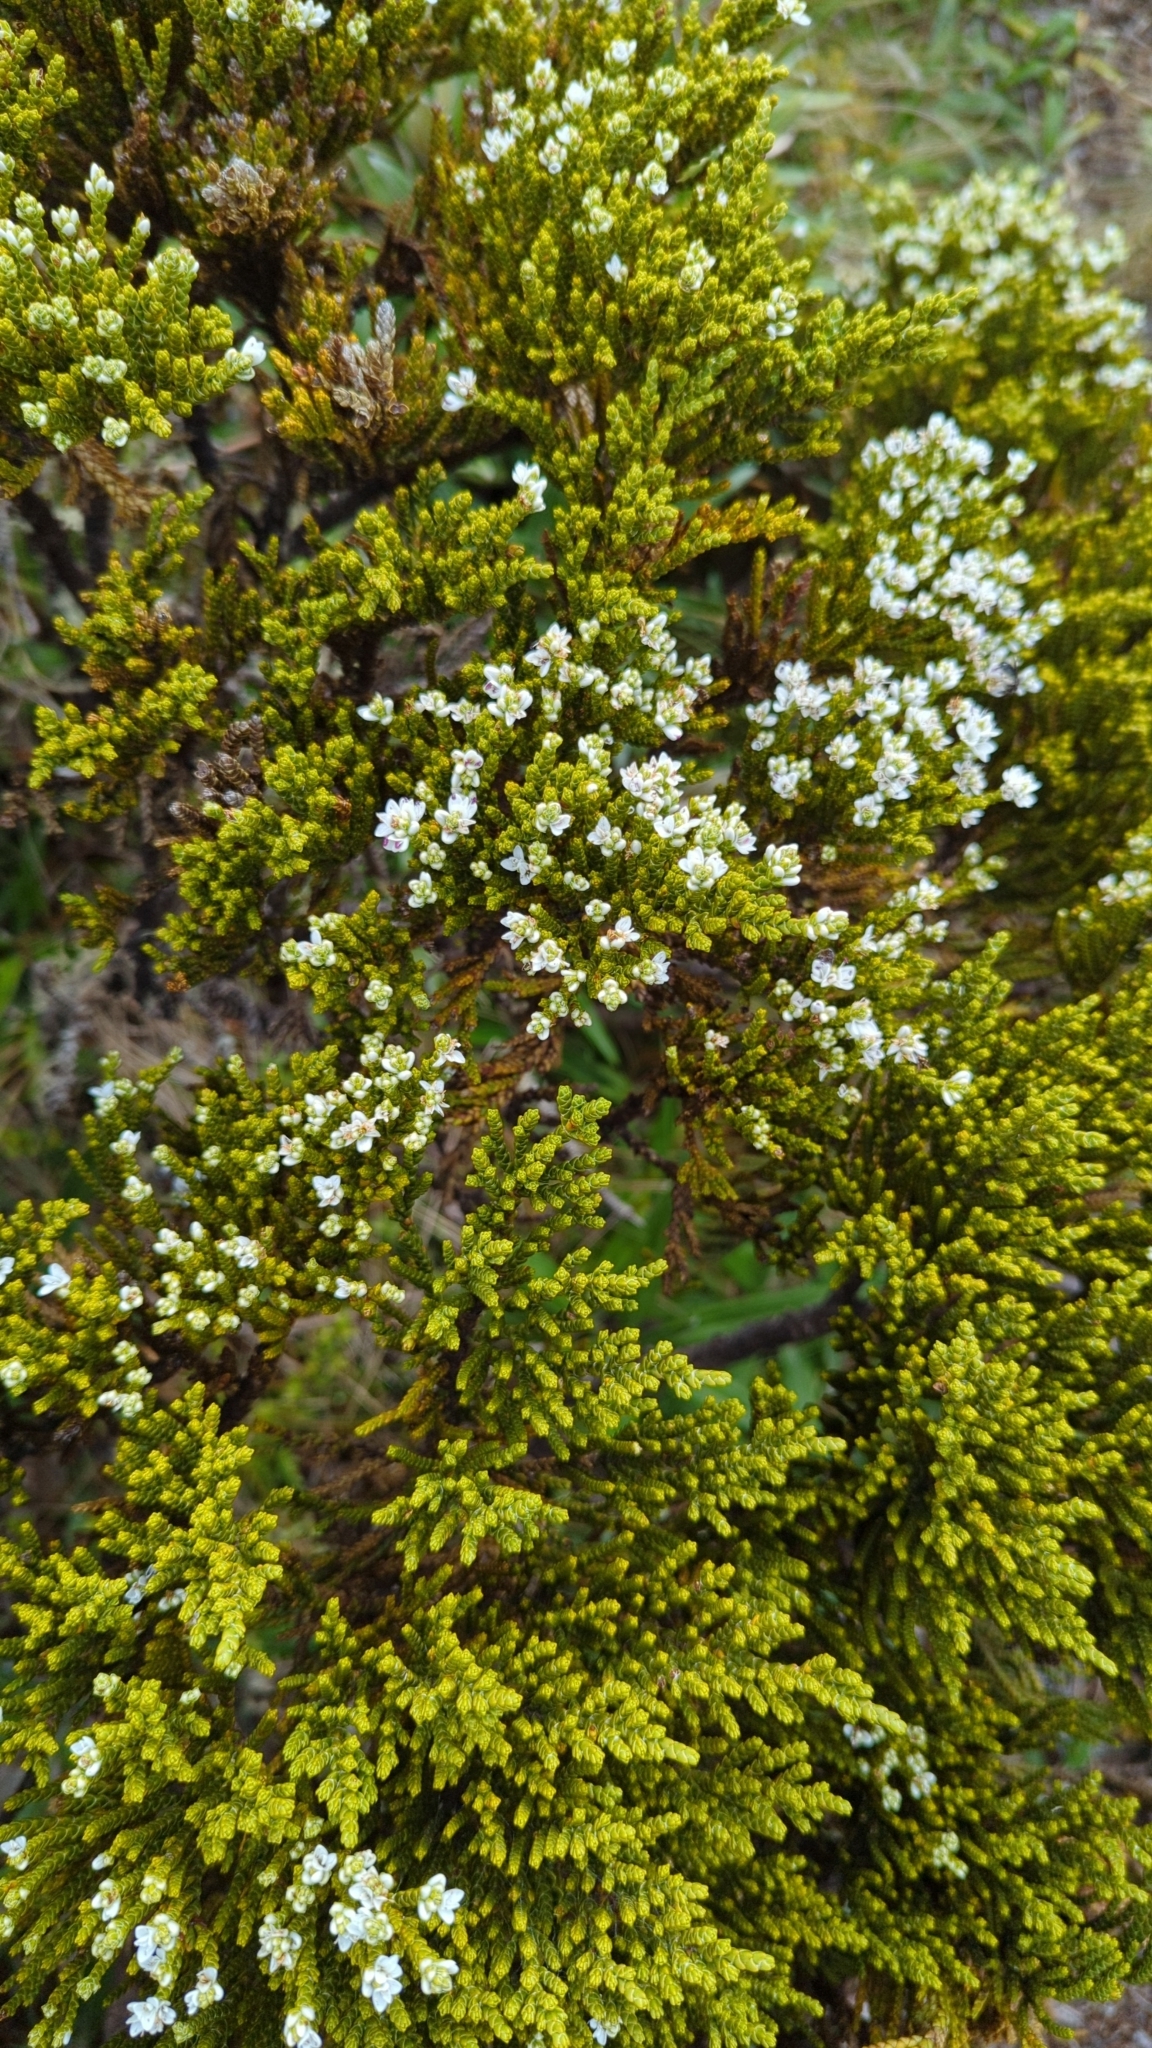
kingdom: Plantae
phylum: Tracheophyta
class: Magnoliopsida
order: Lamiales
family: Plantaginaceae
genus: Veronica
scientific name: Veronica tetragona
